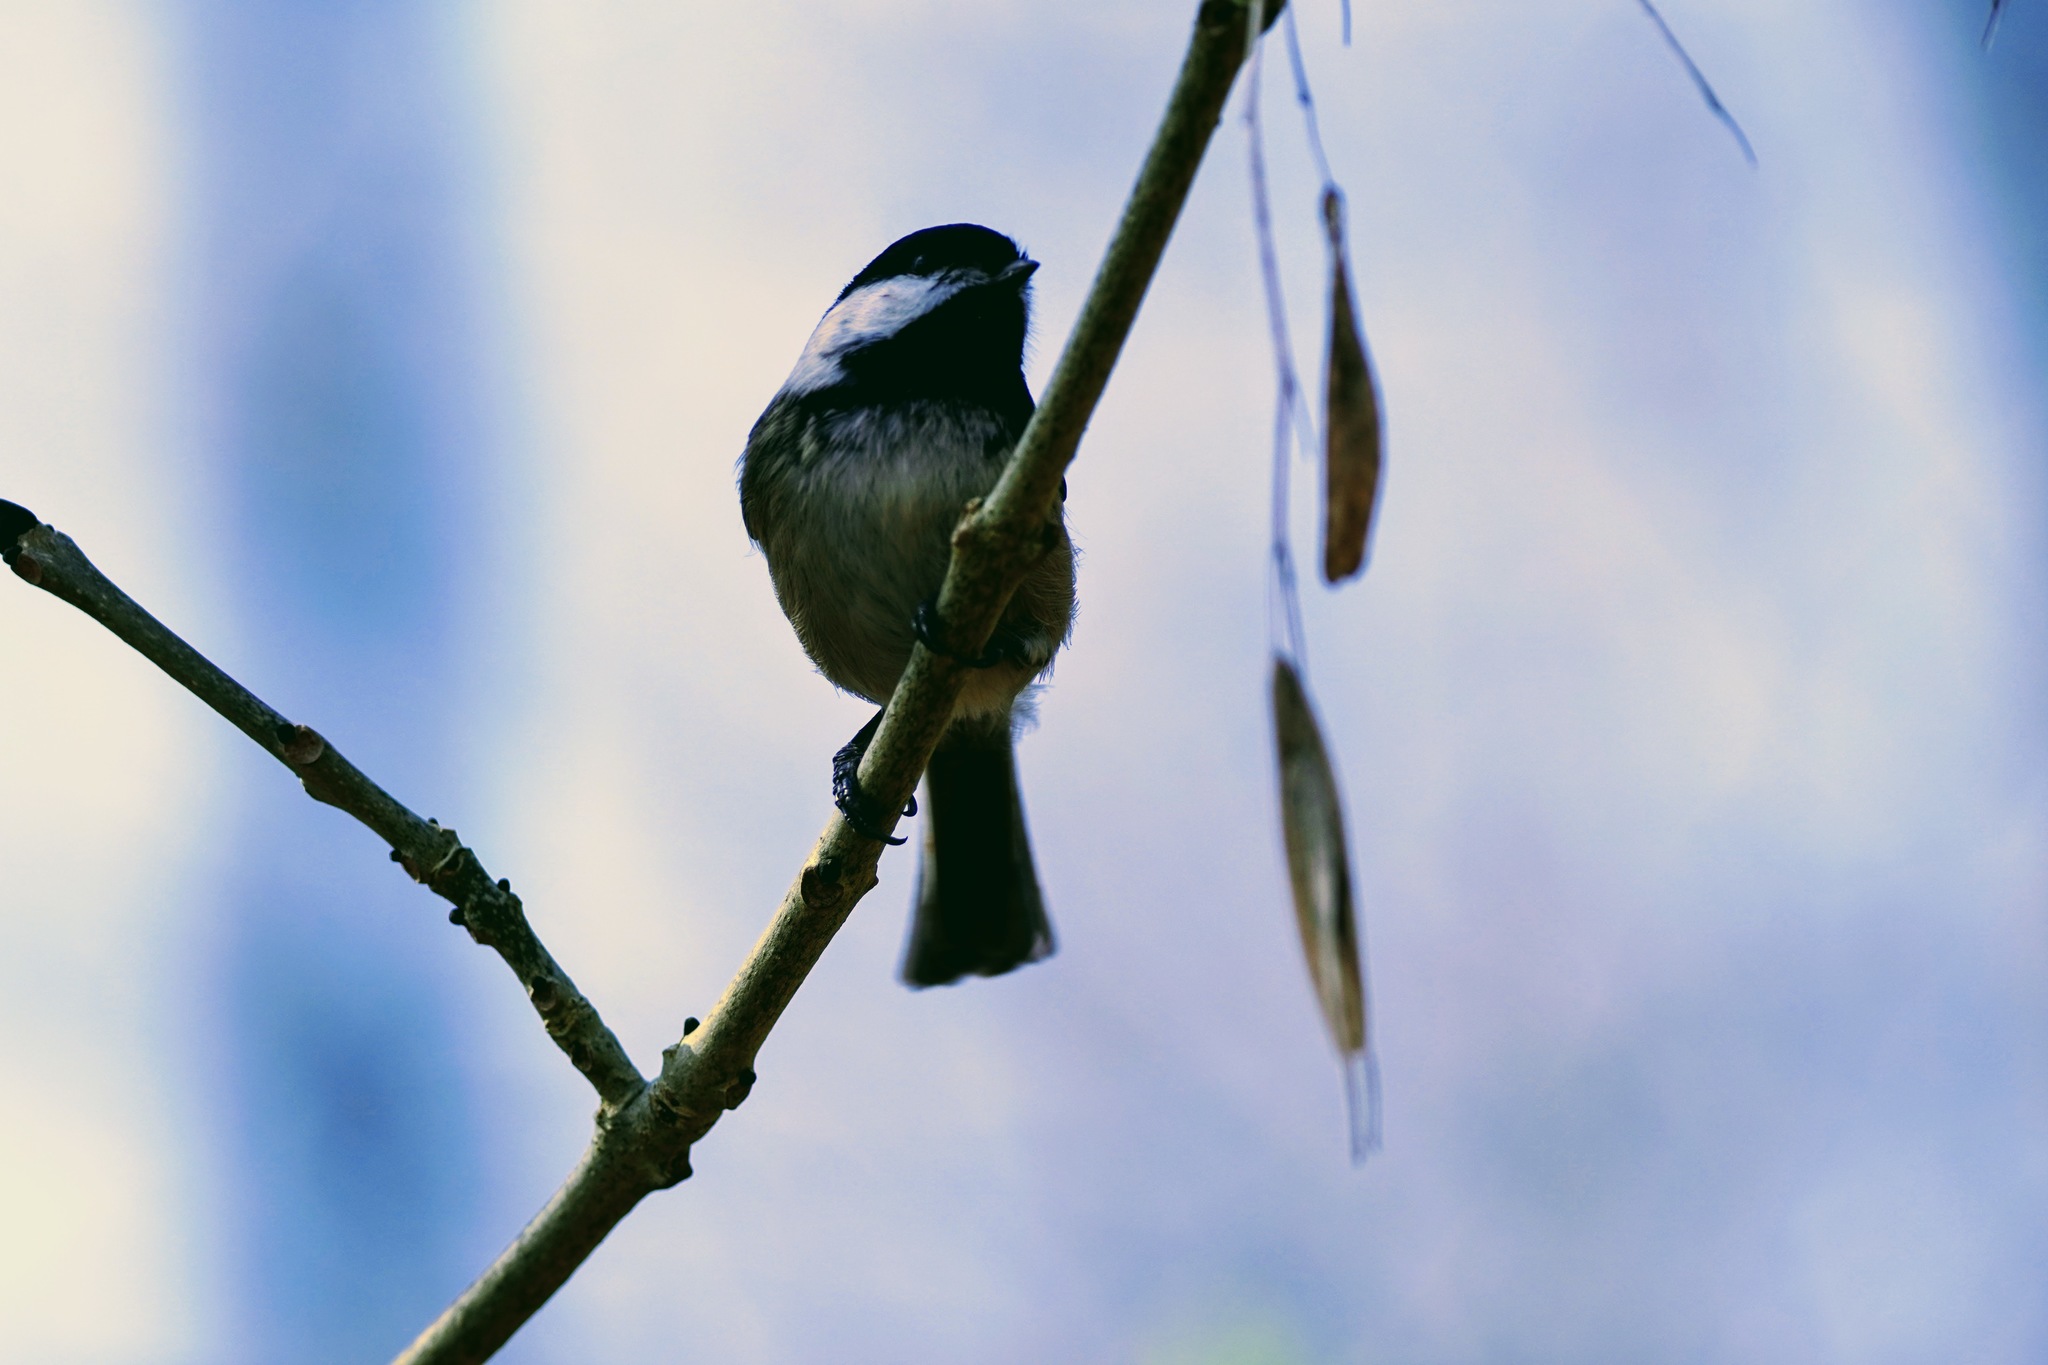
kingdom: Animalia
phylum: Chordata
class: Aves
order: Passeriformes
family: Paridae
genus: Poecile
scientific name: Poecile atricapillus
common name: Black-capped chickadee
